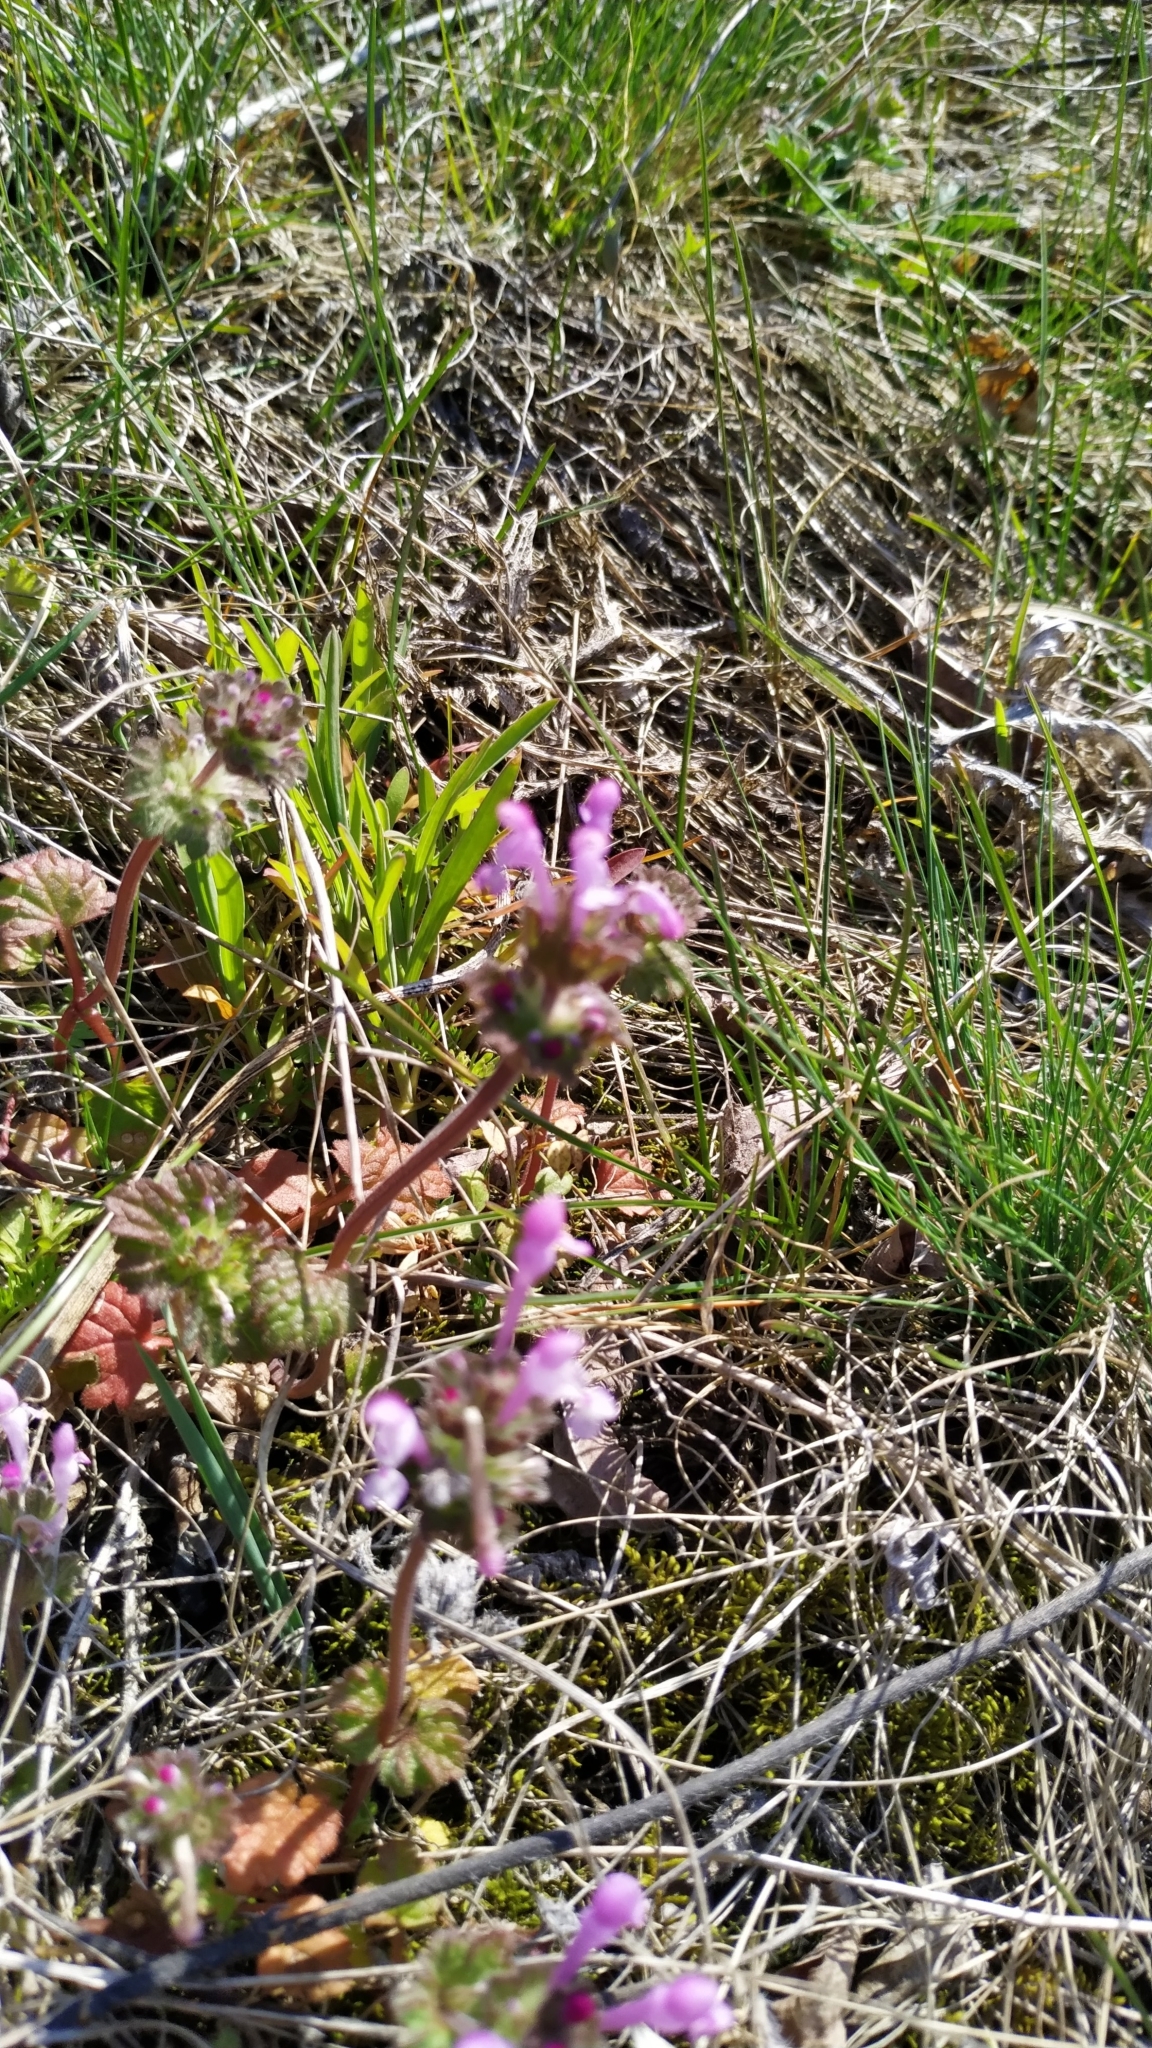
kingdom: Plantae
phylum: Tracheophyta
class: Magnoliopsida
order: Lamiales
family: Lamiaceae
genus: Lamium
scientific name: Lamium amplexicaule
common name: Henbit dead-nettle
